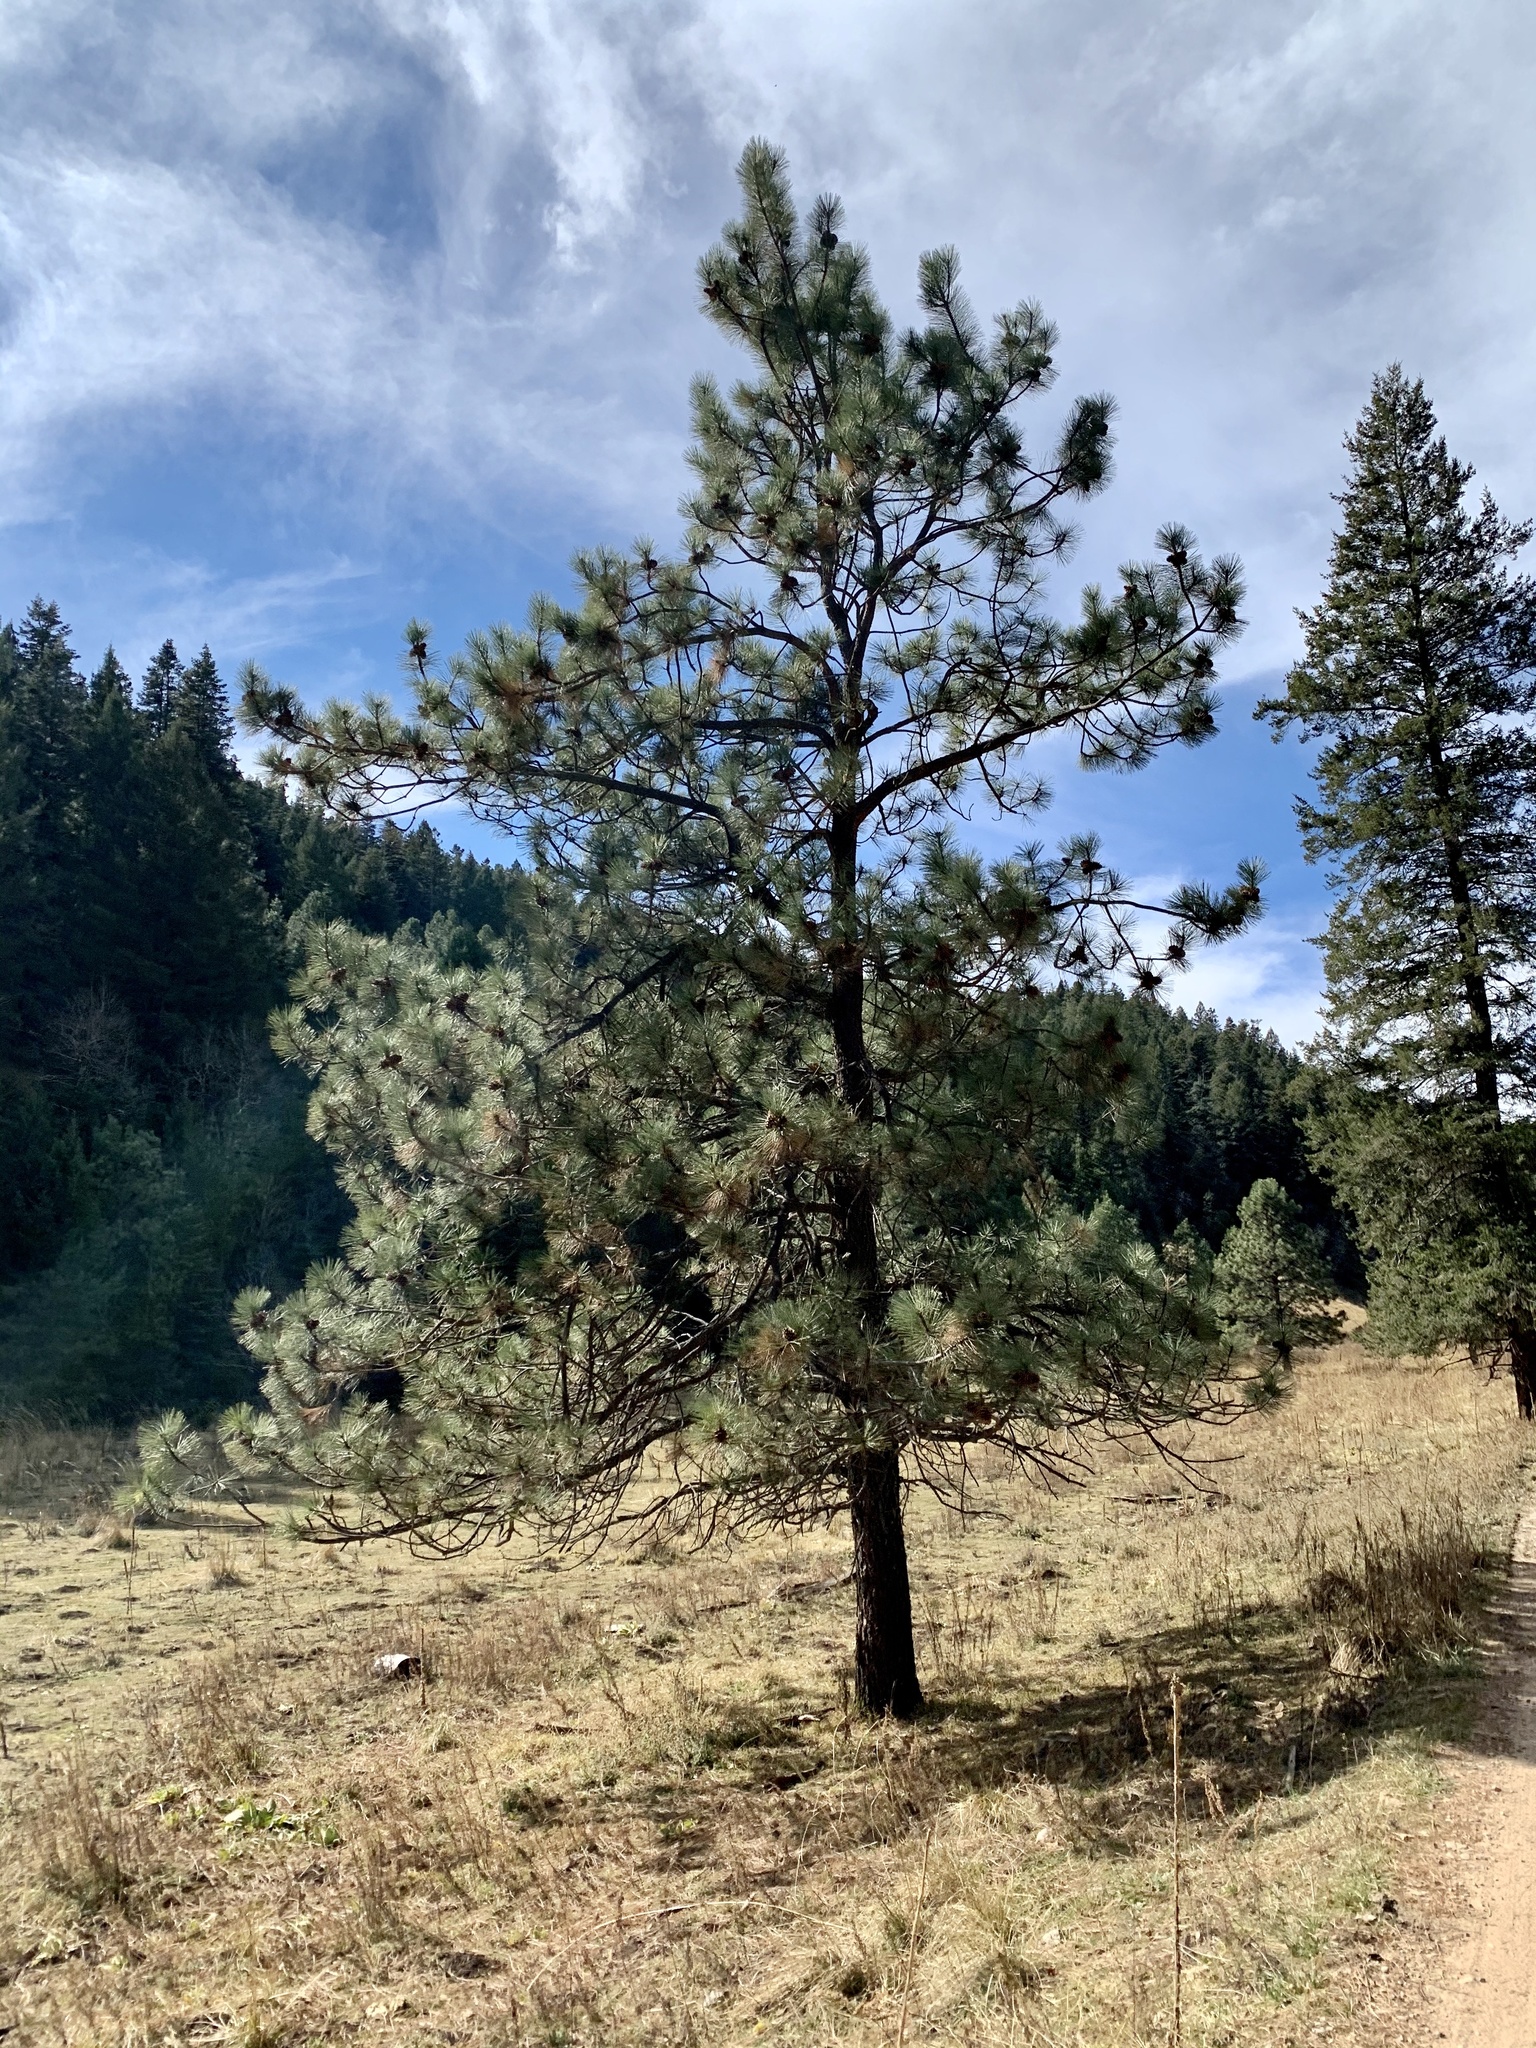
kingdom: Plantae
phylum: Tracheophyta
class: Pinopsida
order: Pinales
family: Pinaceae
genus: Pinus
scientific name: Pinus ponderosa
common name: Western yellow-pine
